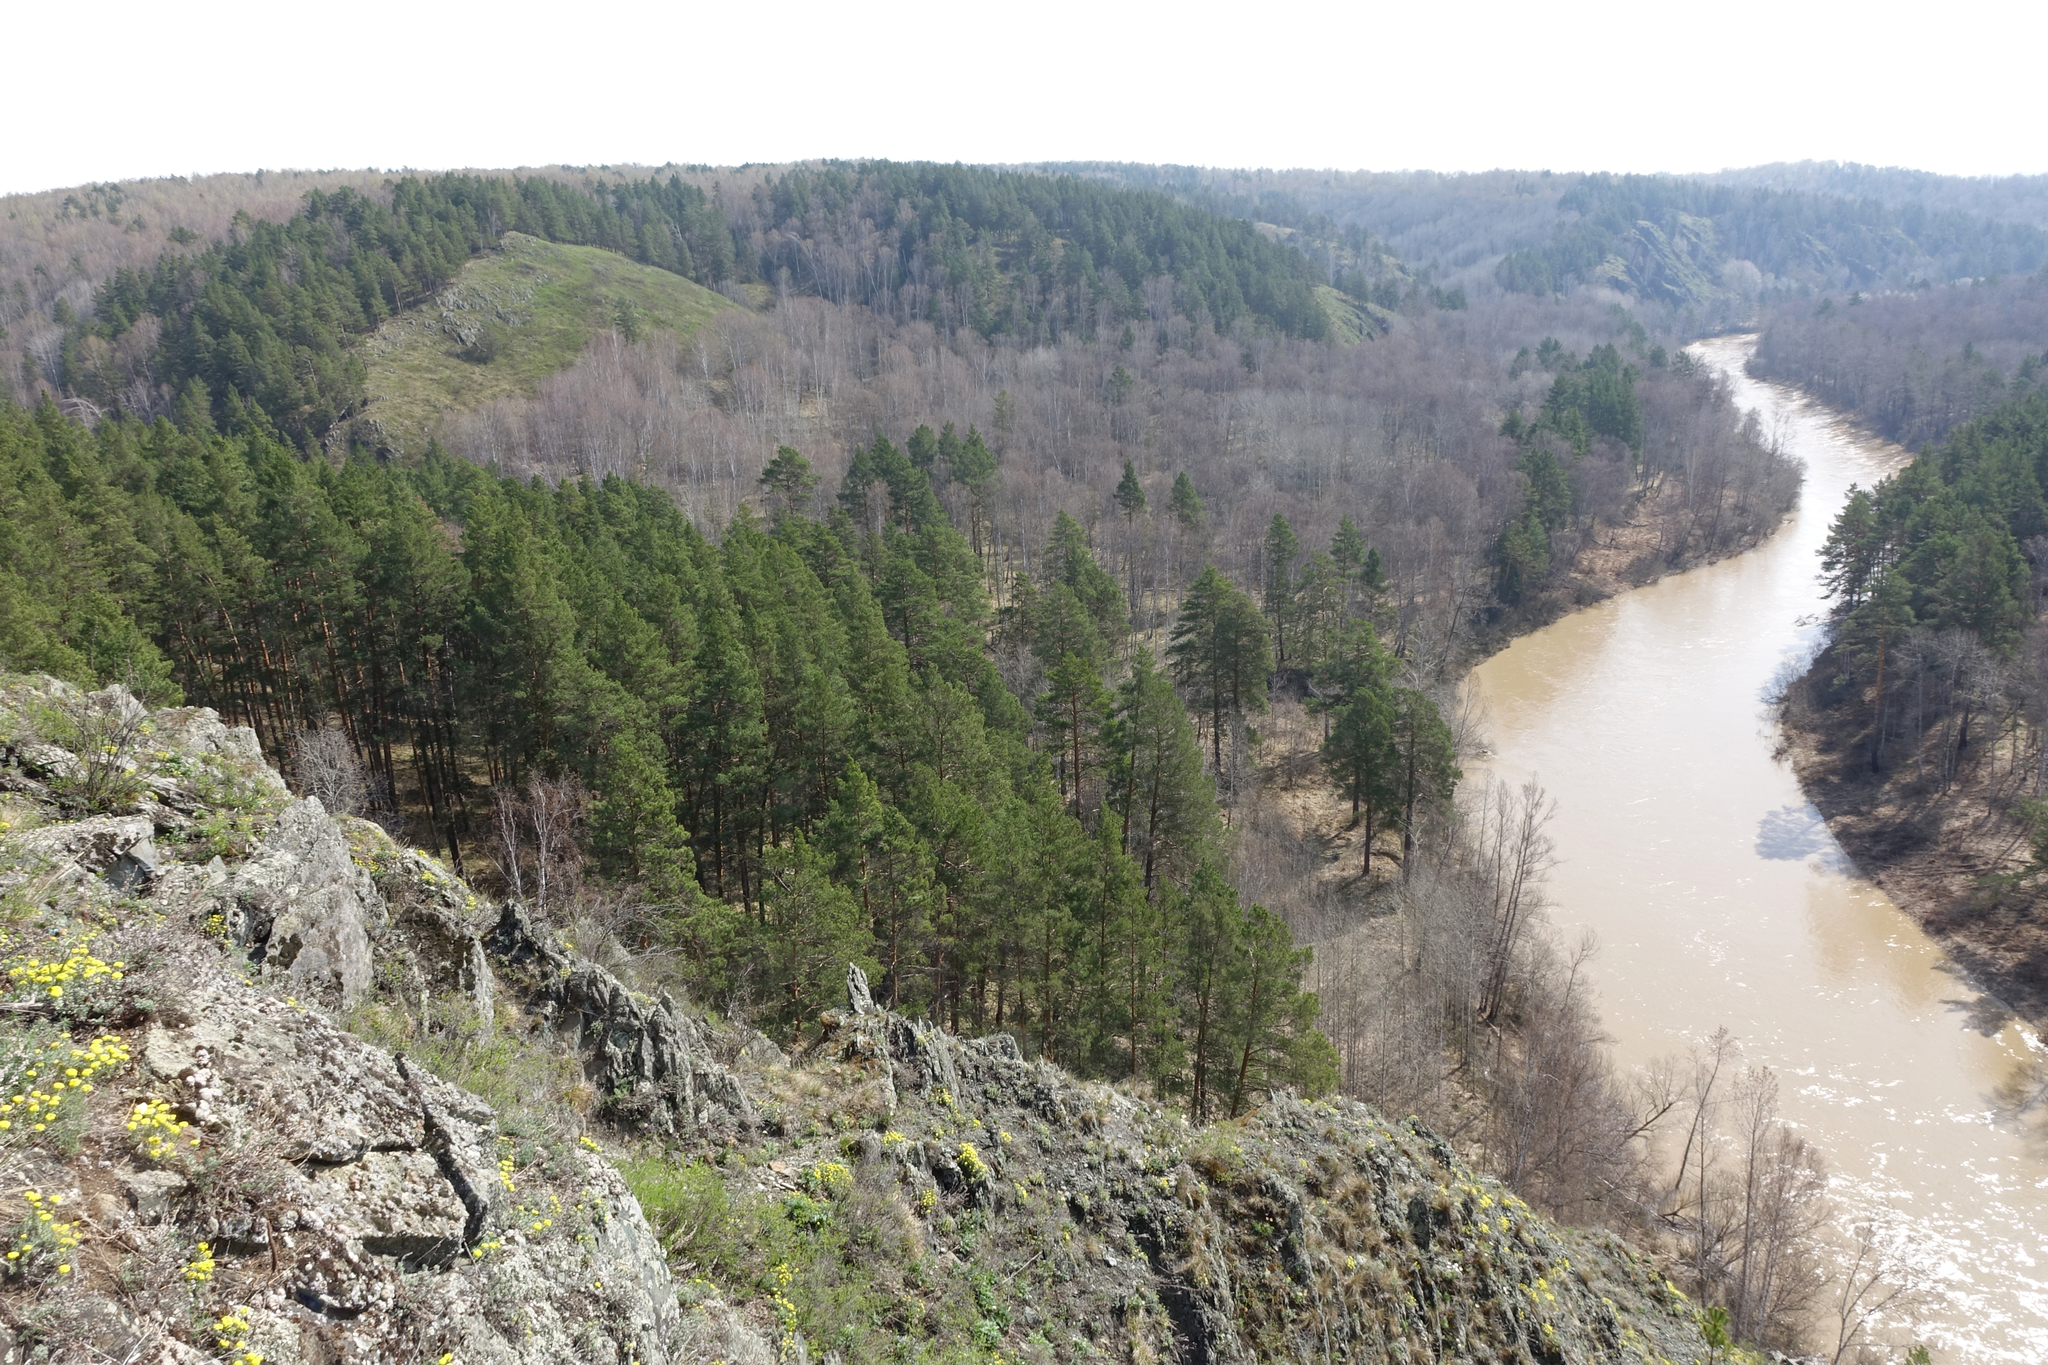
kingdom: Plantae
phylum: Tracheophyta
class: Pinopsida
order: Pinales
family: Pinaceae
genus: Pinus
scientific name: Pinus sylvestris
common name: Scots pine
